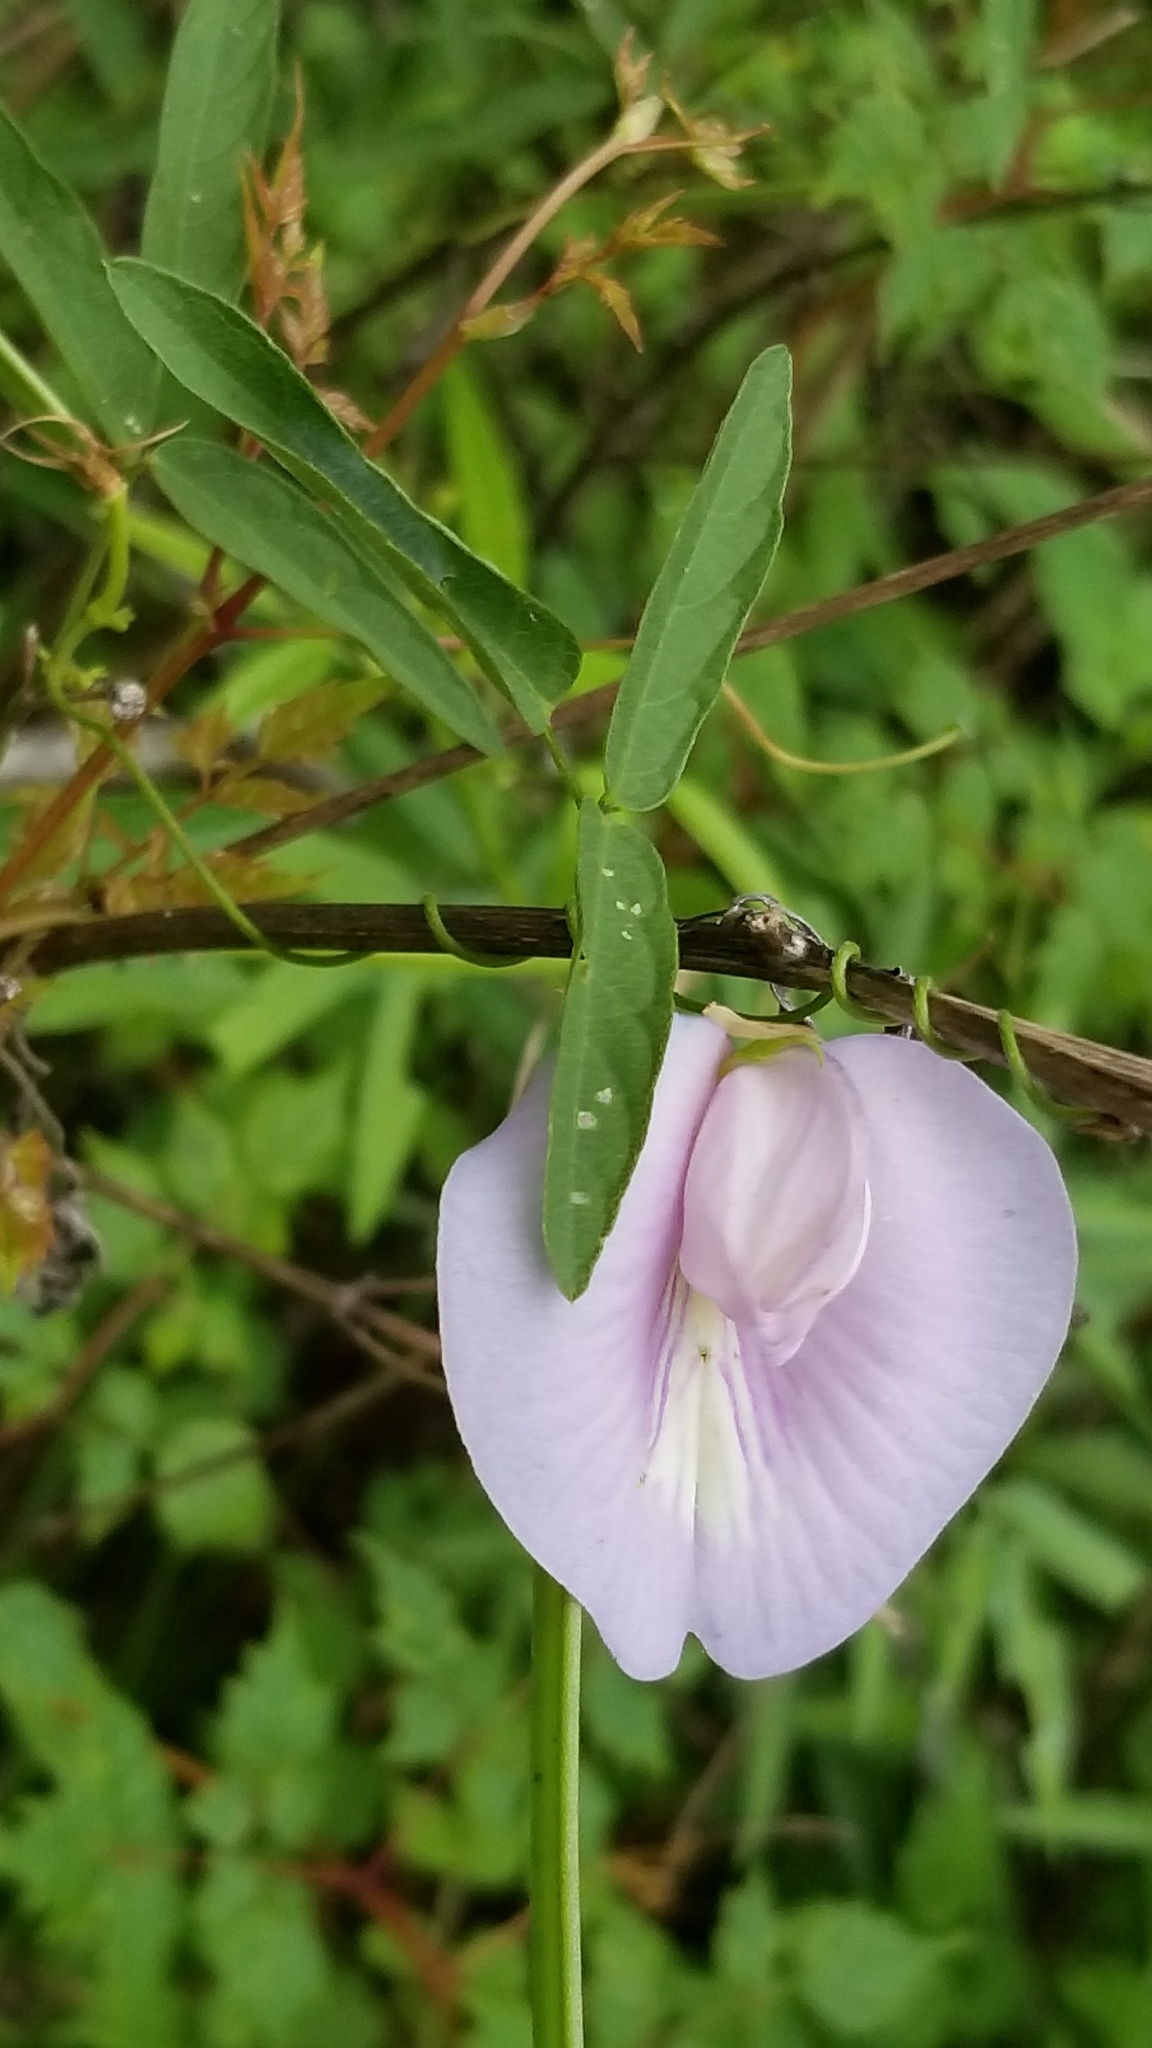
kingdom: Plantae
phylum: Tracheophyta
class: Magnoliopsida
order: Fabales
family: Fabaceae
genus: Centrosema
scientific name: Centrosema virginianum
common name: Butterfly-pea
